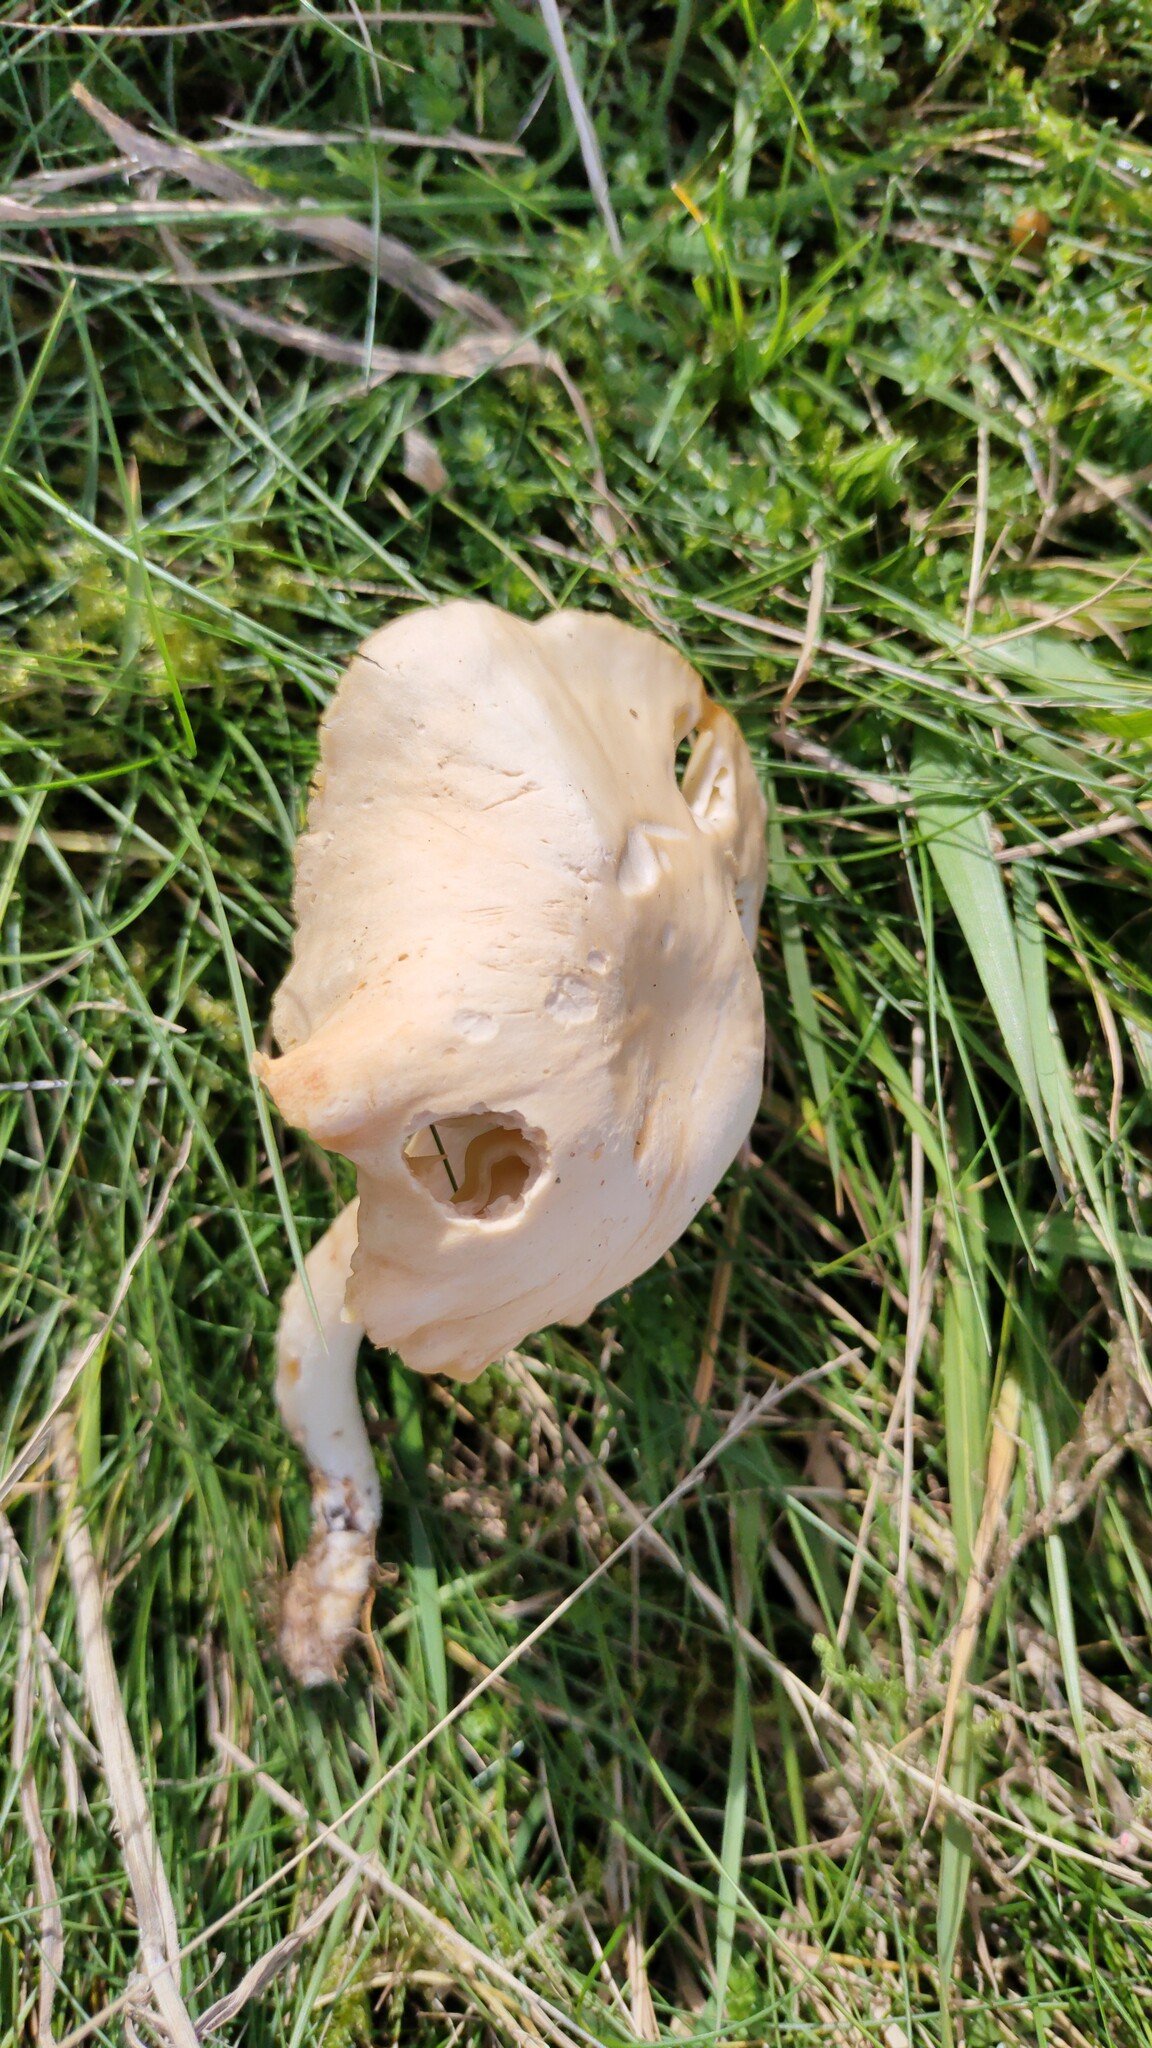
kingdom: Fungi
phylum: Basidiomycota
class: Agaricomycetes
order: Agaricales
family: Hygrophoraceae
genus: Cuphophyllus
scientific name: Cuphophyllus pratensis
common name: Meadow waxcap
